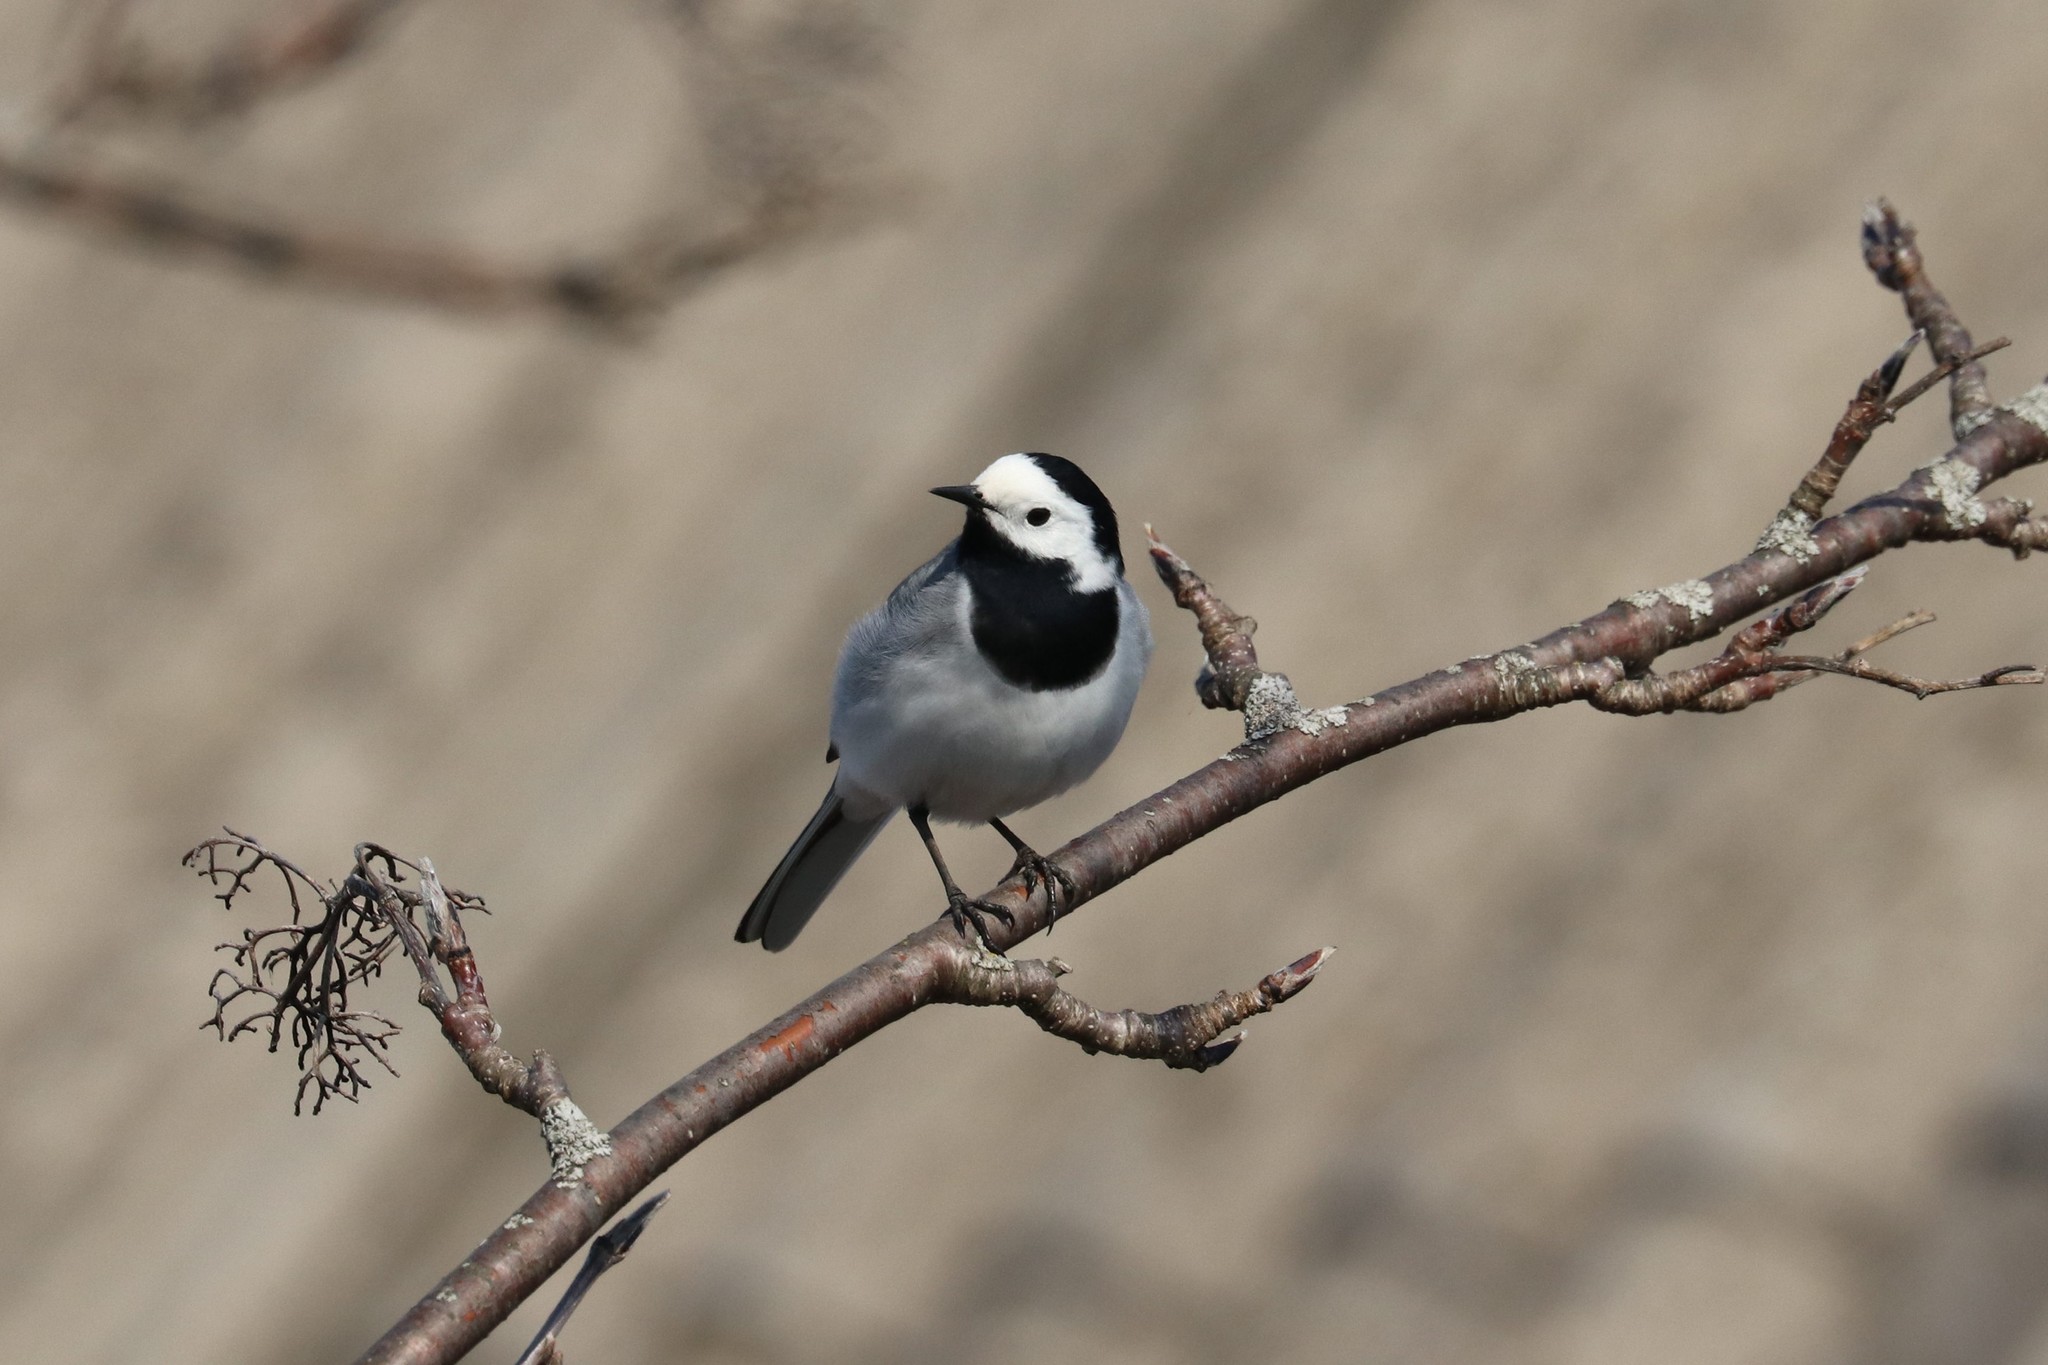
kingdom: Animalia
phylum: Chordata
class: Aves
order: Passeriformes
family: Motacillidae
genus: Motacilla
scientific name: Motacilla alba
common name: White wagtail
